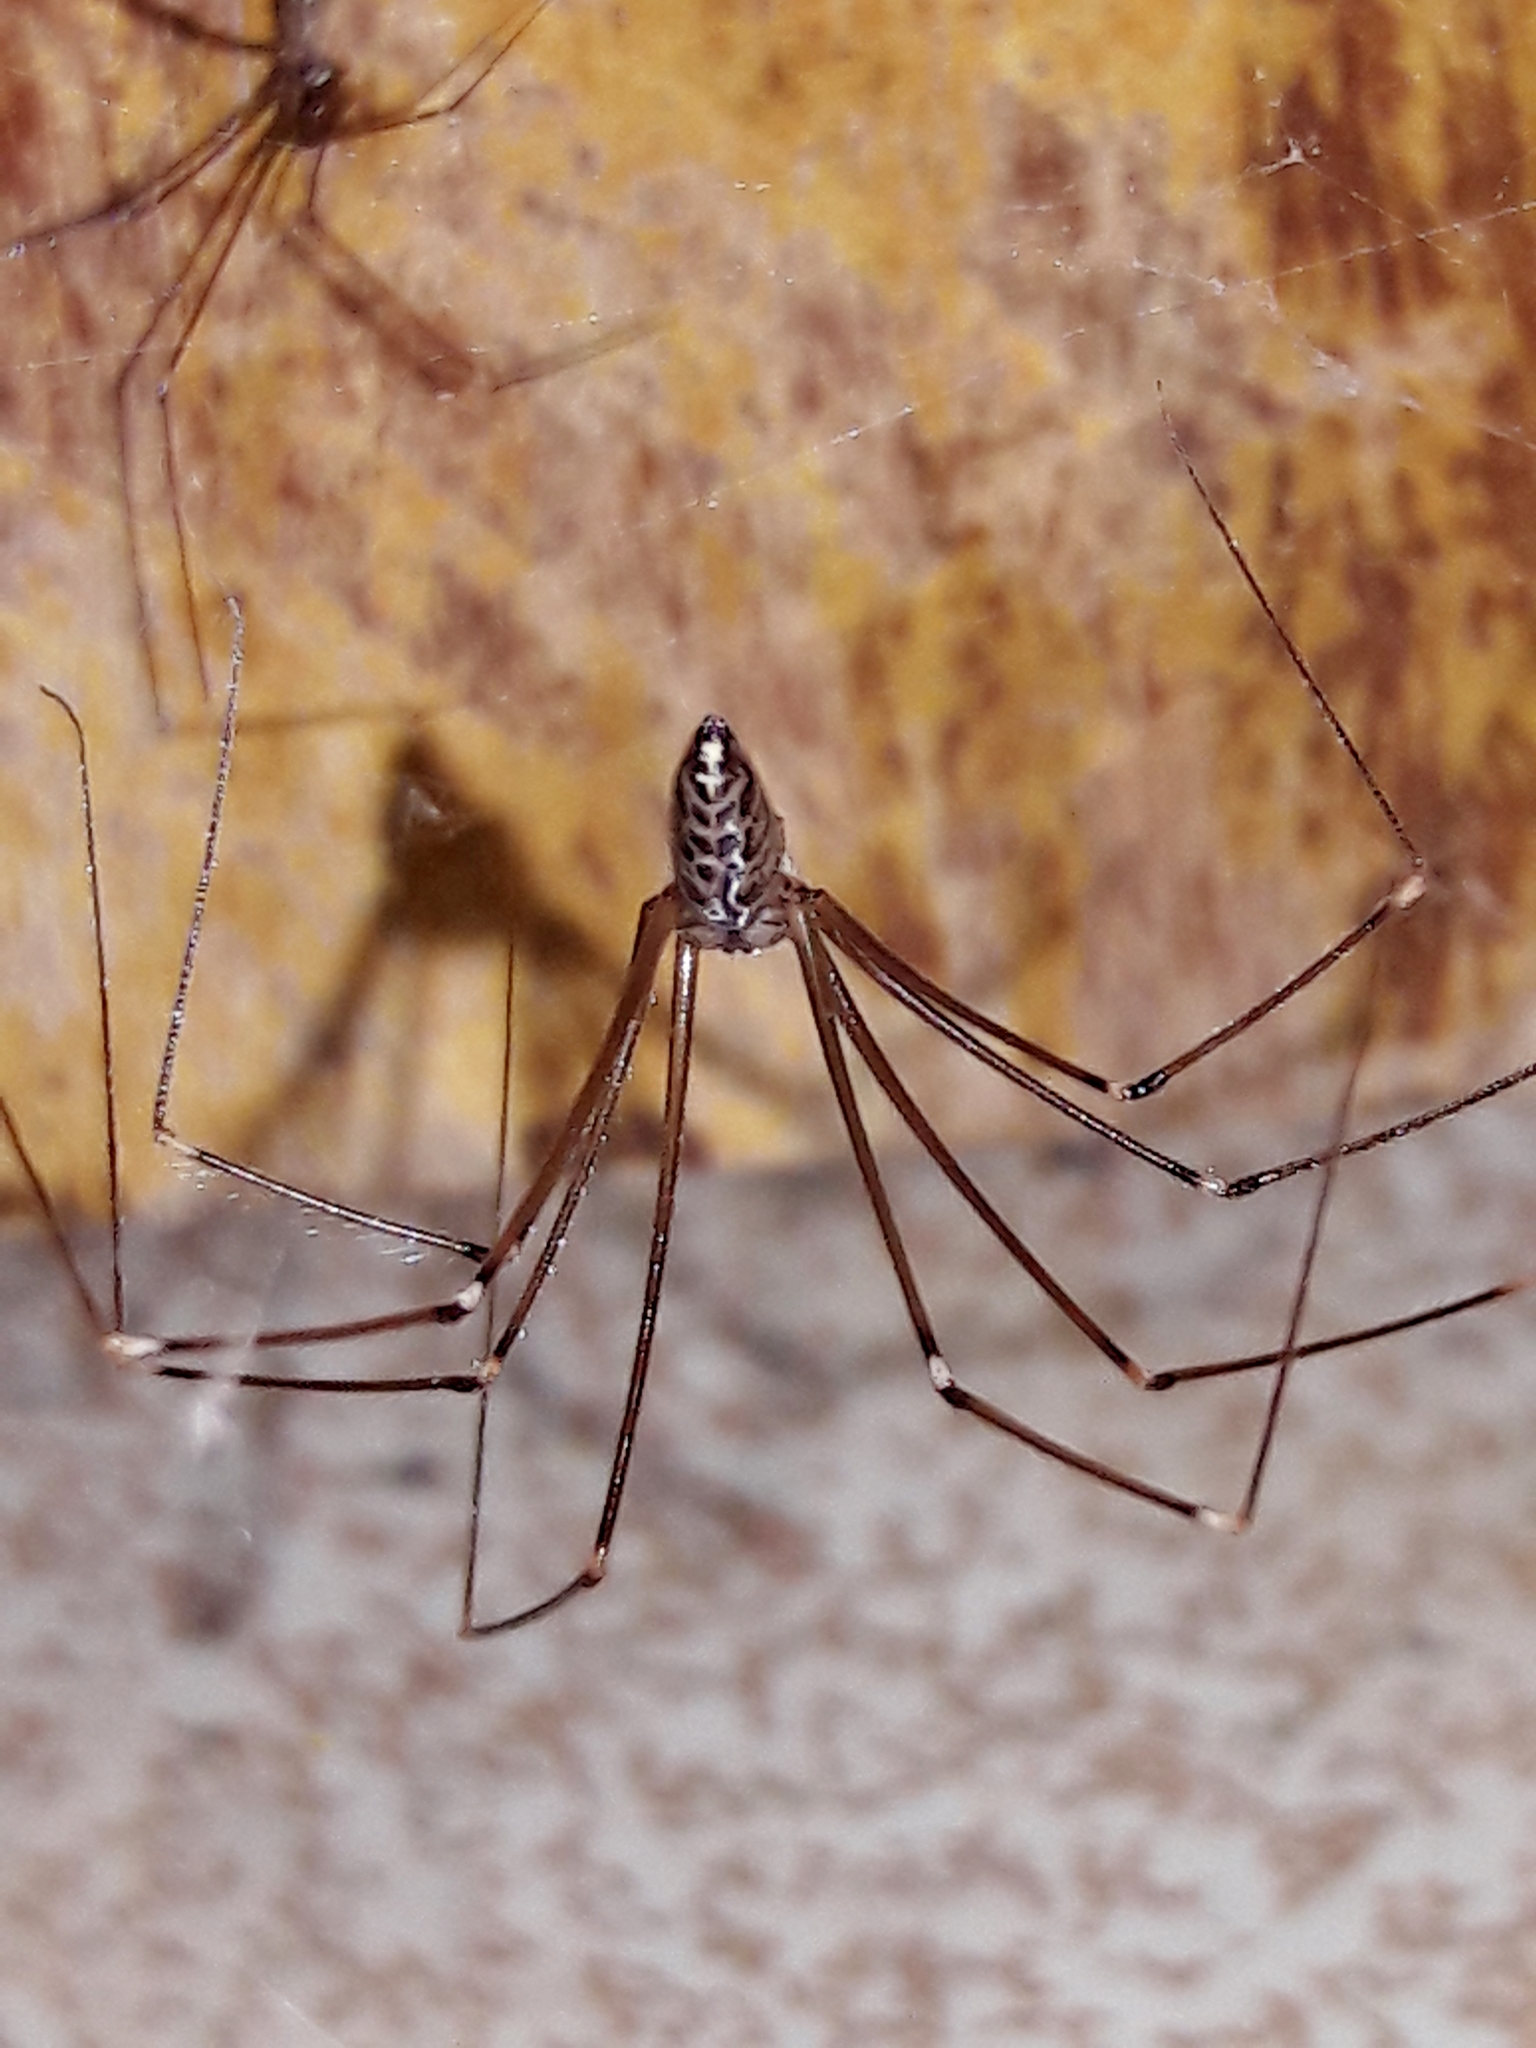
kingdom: Animalia
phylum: Arthropoda
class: Arachnida
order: Araneae
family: Pholcidae
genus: Smeringopus
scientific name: Smeringopus pallidus
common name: Cellar spider
